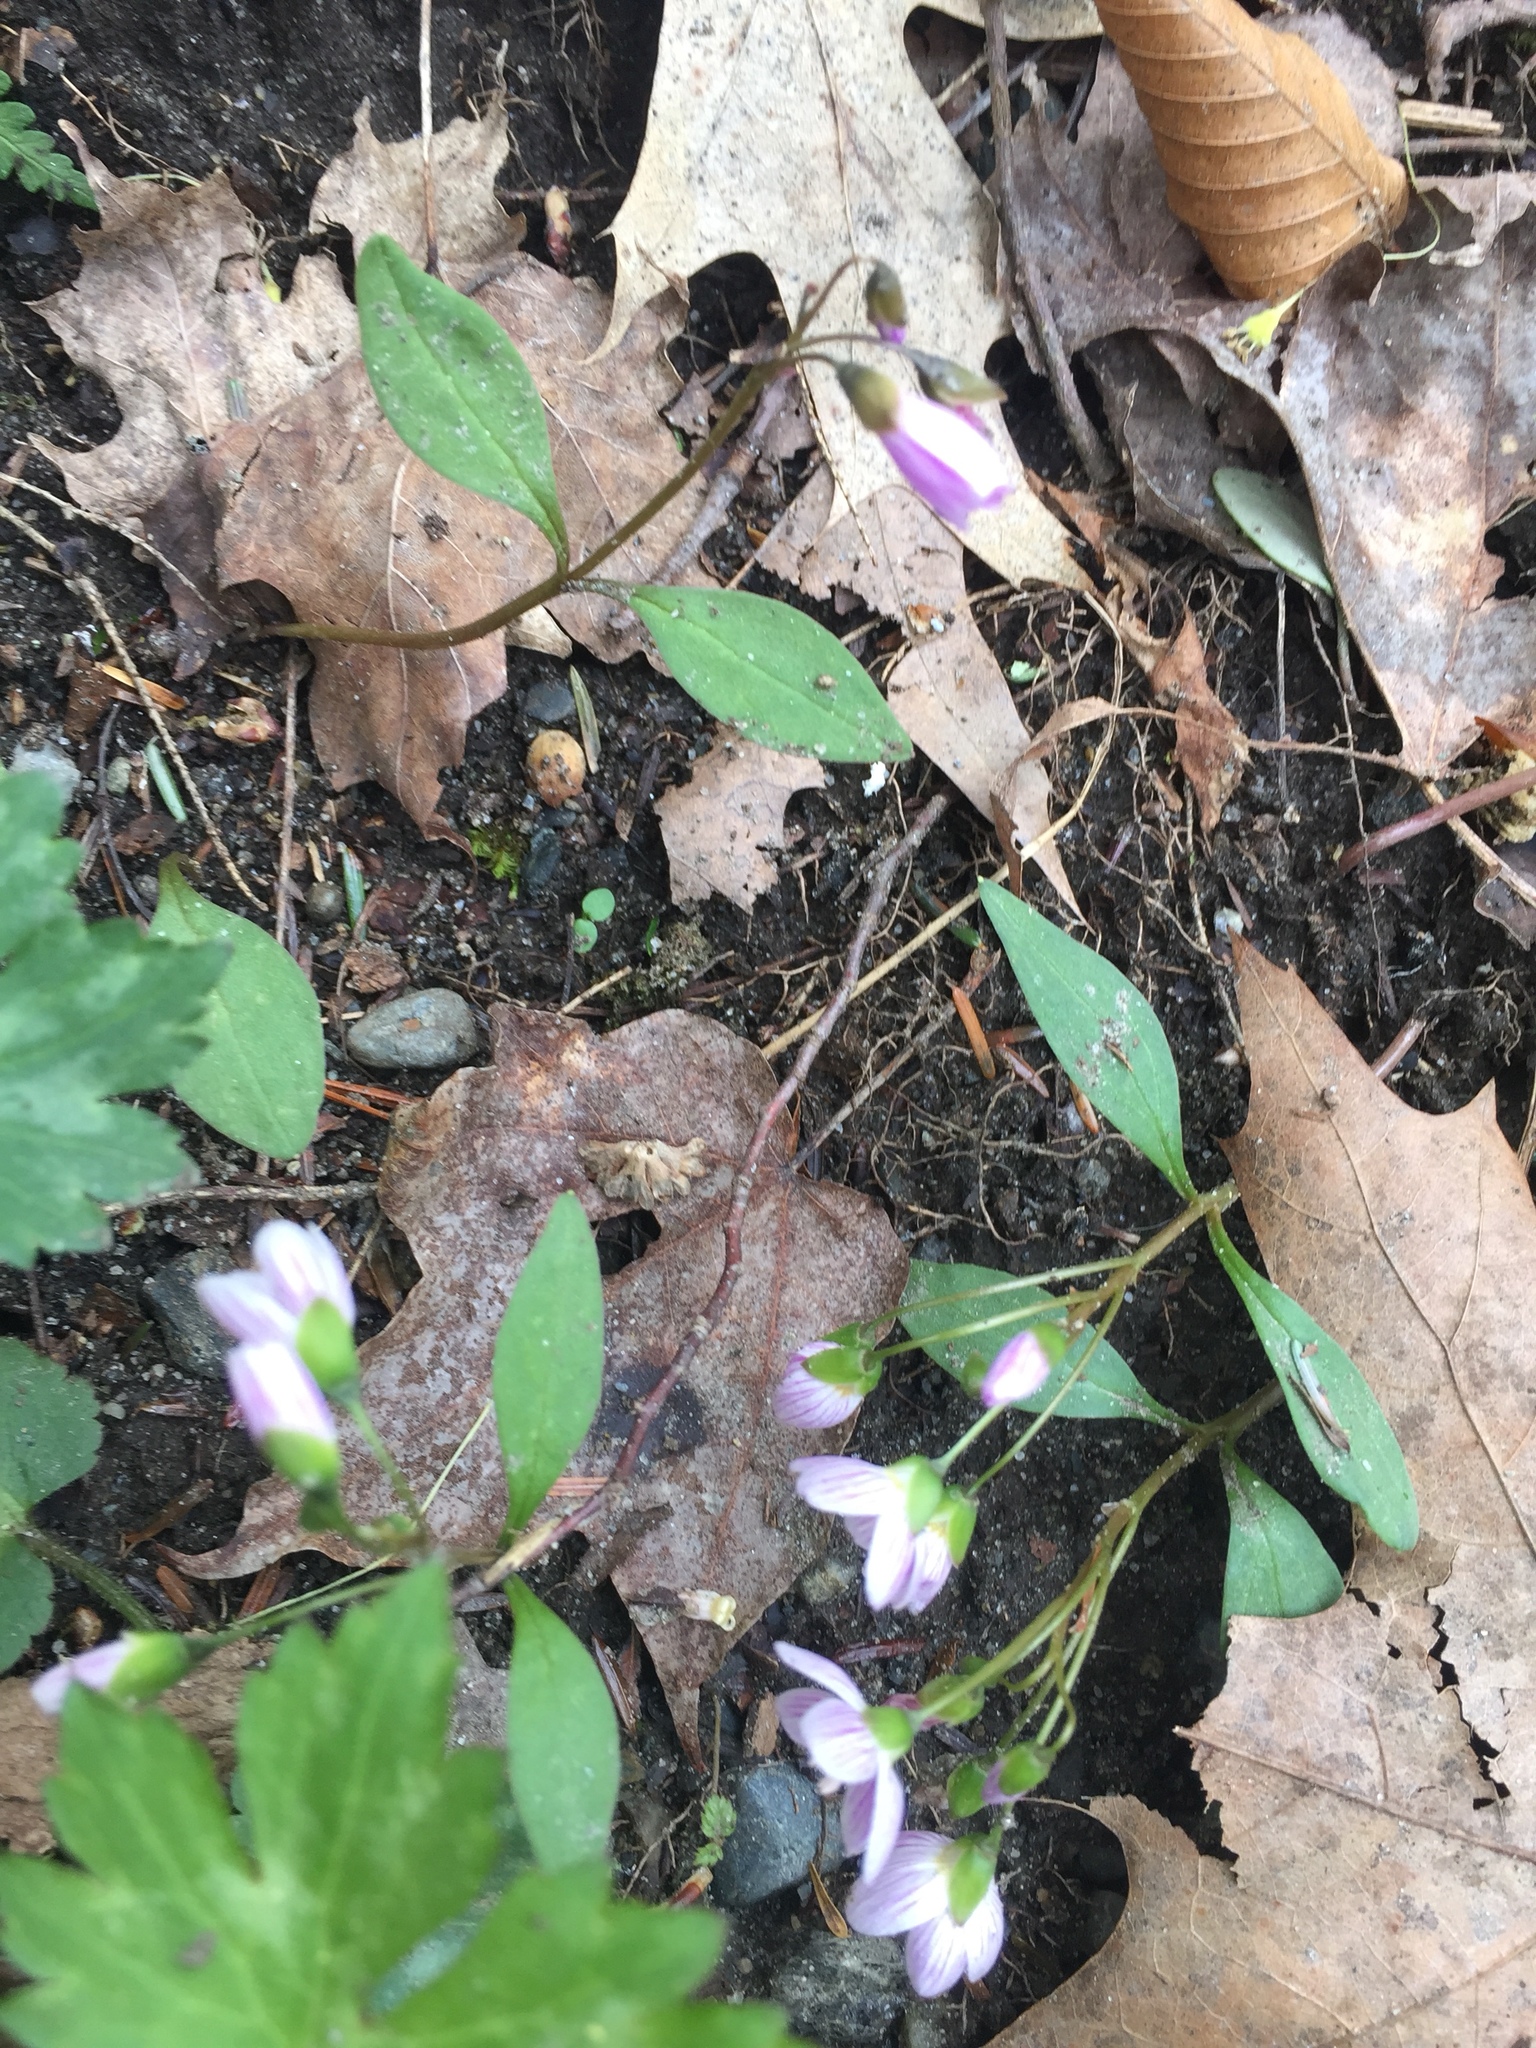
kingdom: Plantae
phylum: Tracheophyta
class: Magnoliopsida
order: Caryophyllales
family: Montiaceae
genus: Claytonia
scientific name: Claytonia caroliniana
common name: Carolina spring beauty
